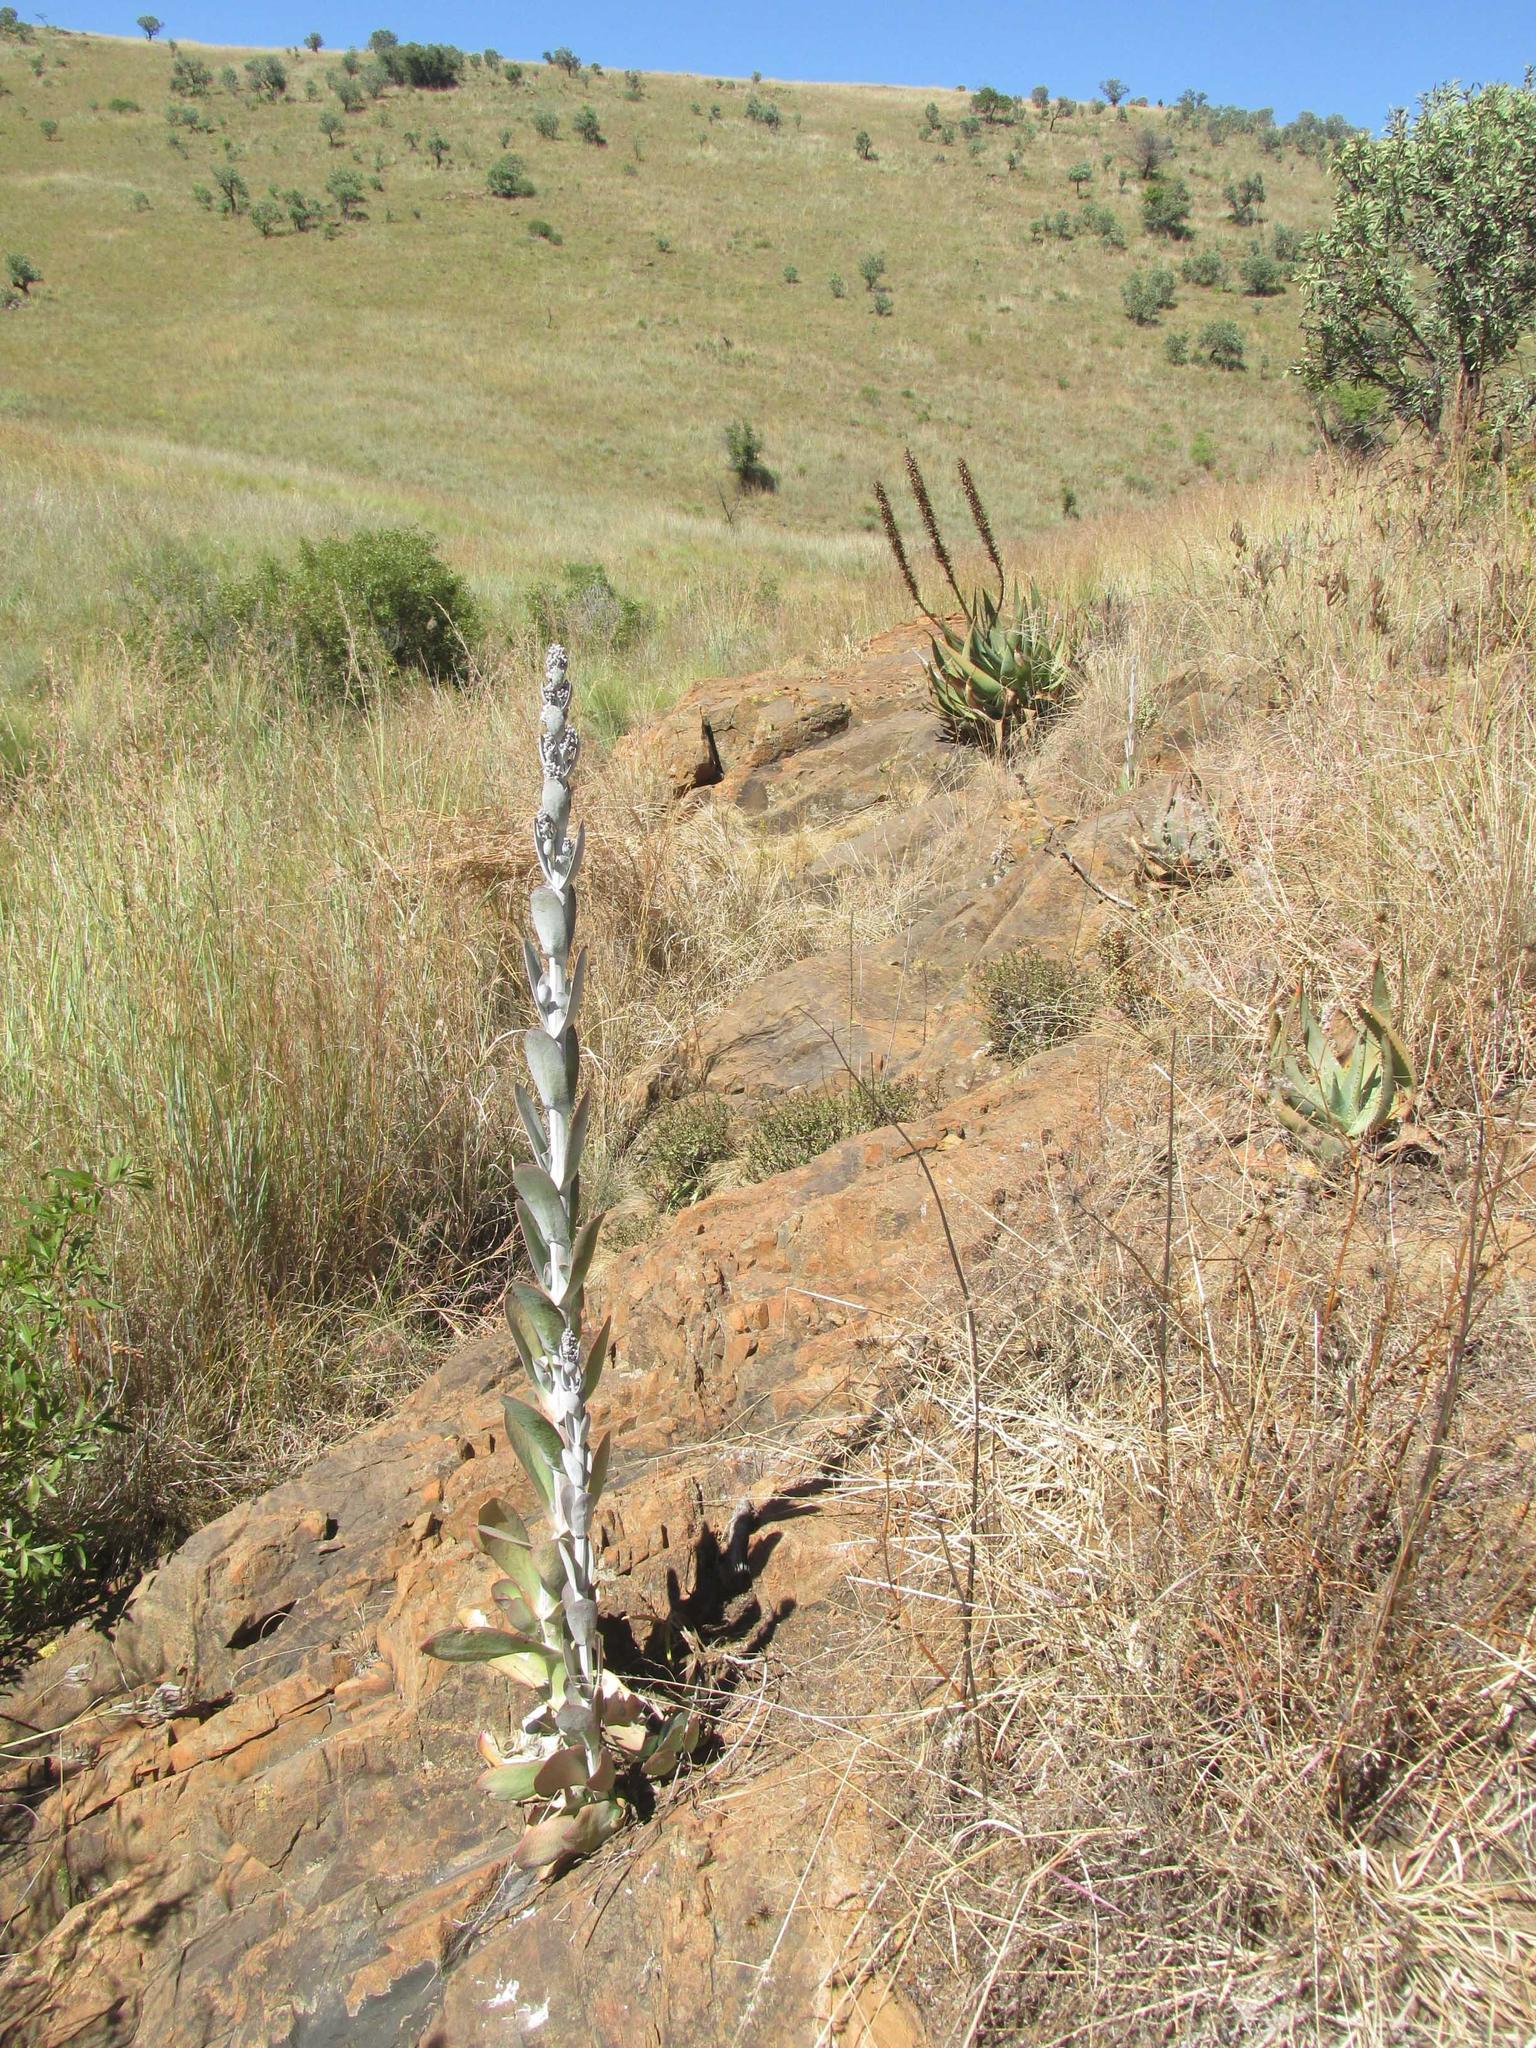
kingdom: Plantae
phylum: Tracheophyta
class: Magnoliopsida
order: Saxifragales
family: Crassulaceae
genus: Kalanchoe
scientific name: Kalanchoe thyrsiflora
